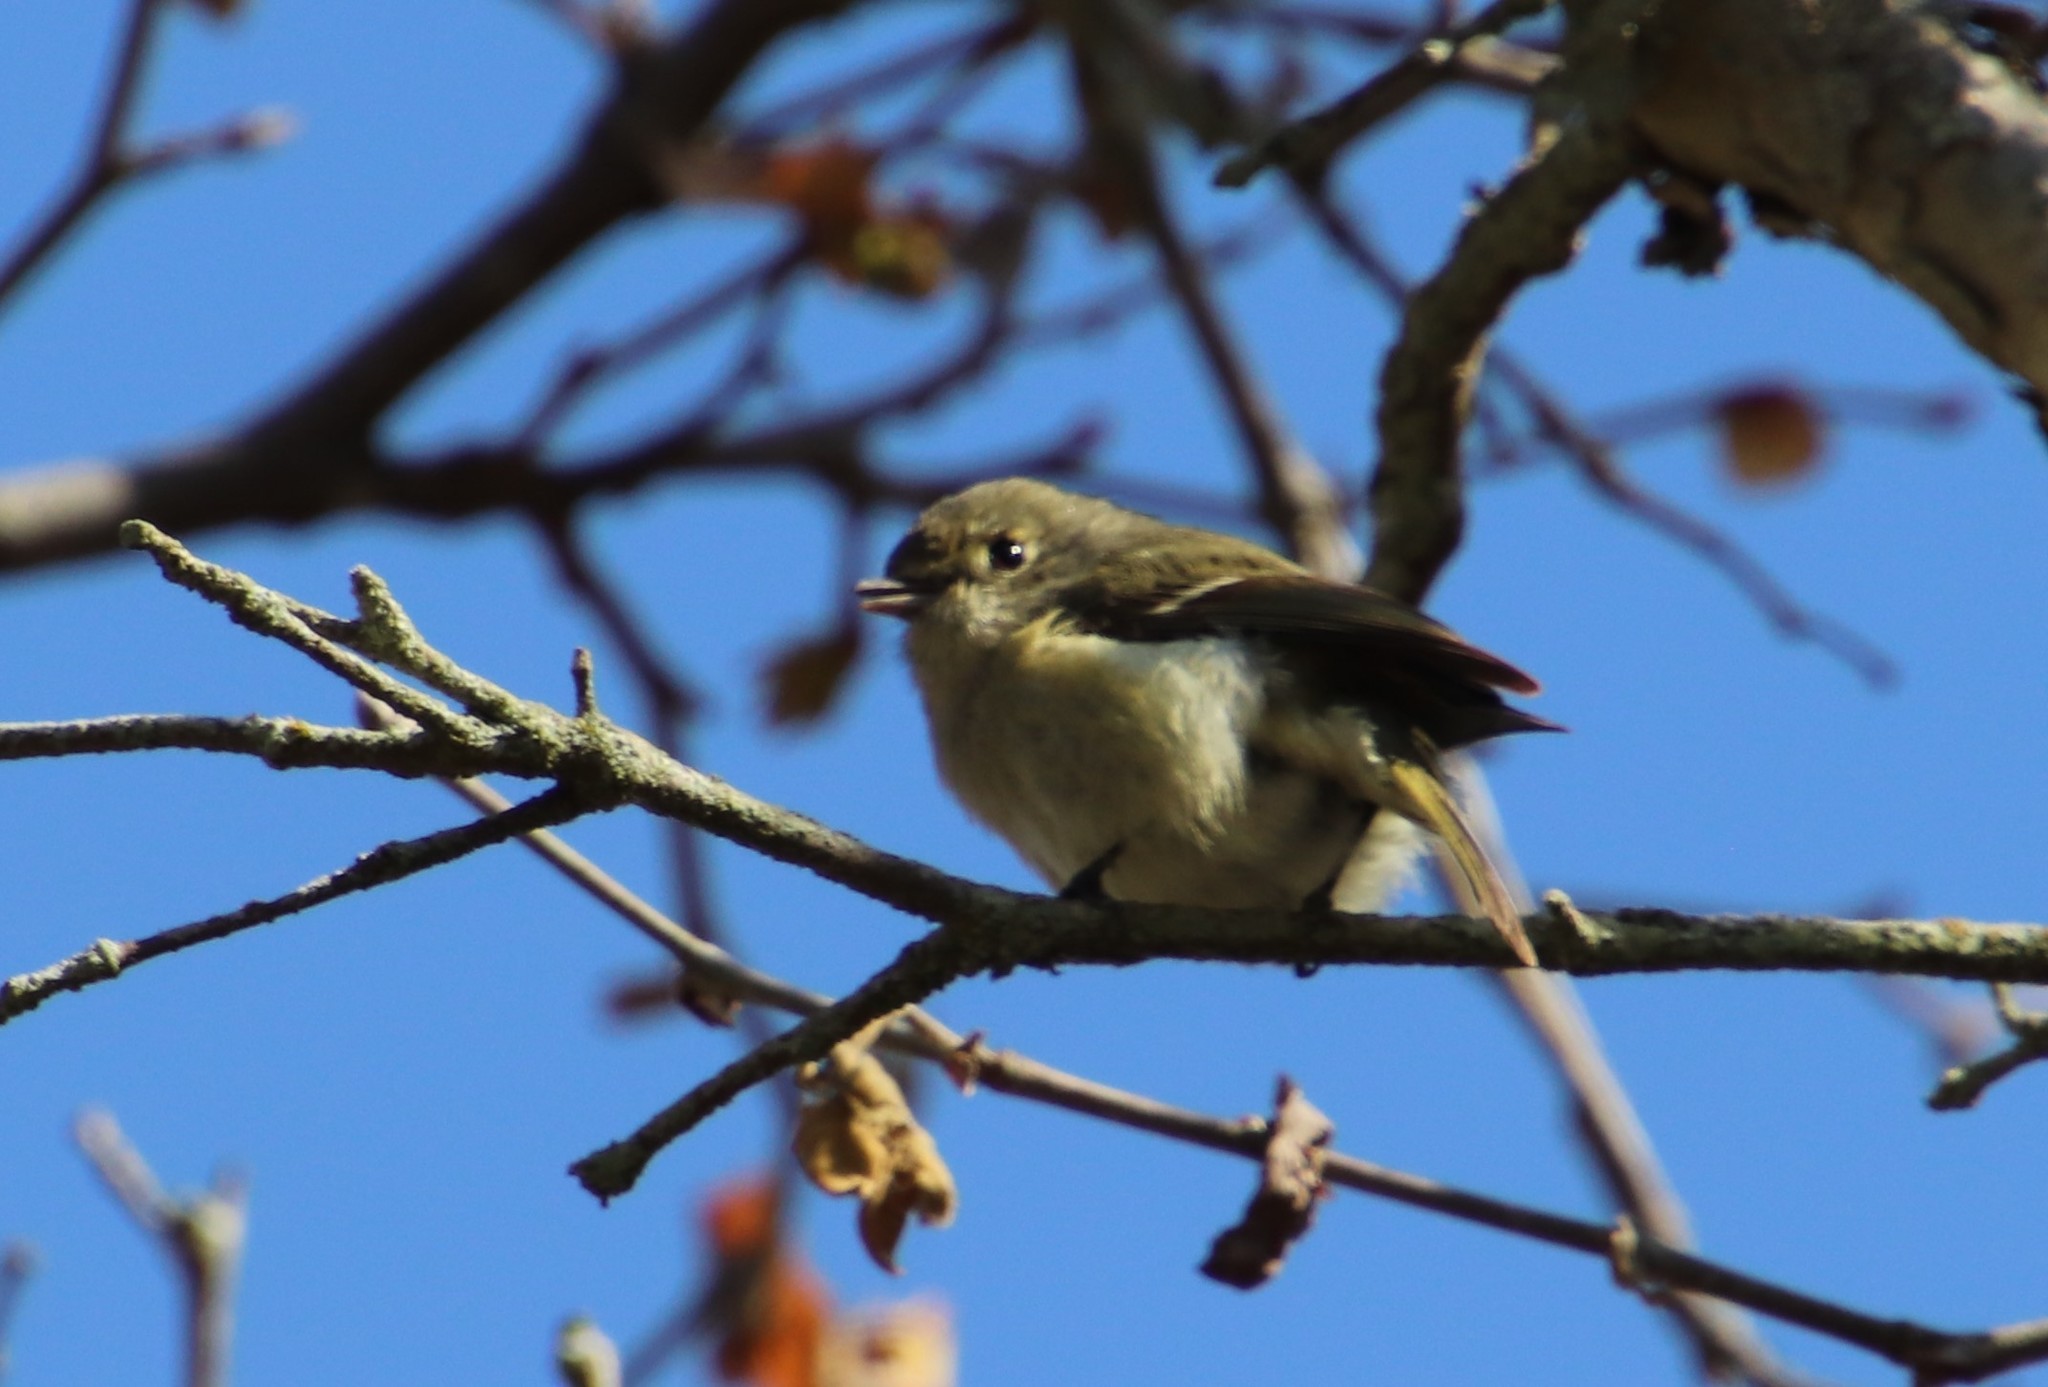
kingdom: Animalia
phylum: Chordata
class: Aves
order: Passeriformes
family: Vireonidae
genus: Vireo
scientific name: Vireo huttoni
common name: Hutton's vireo
